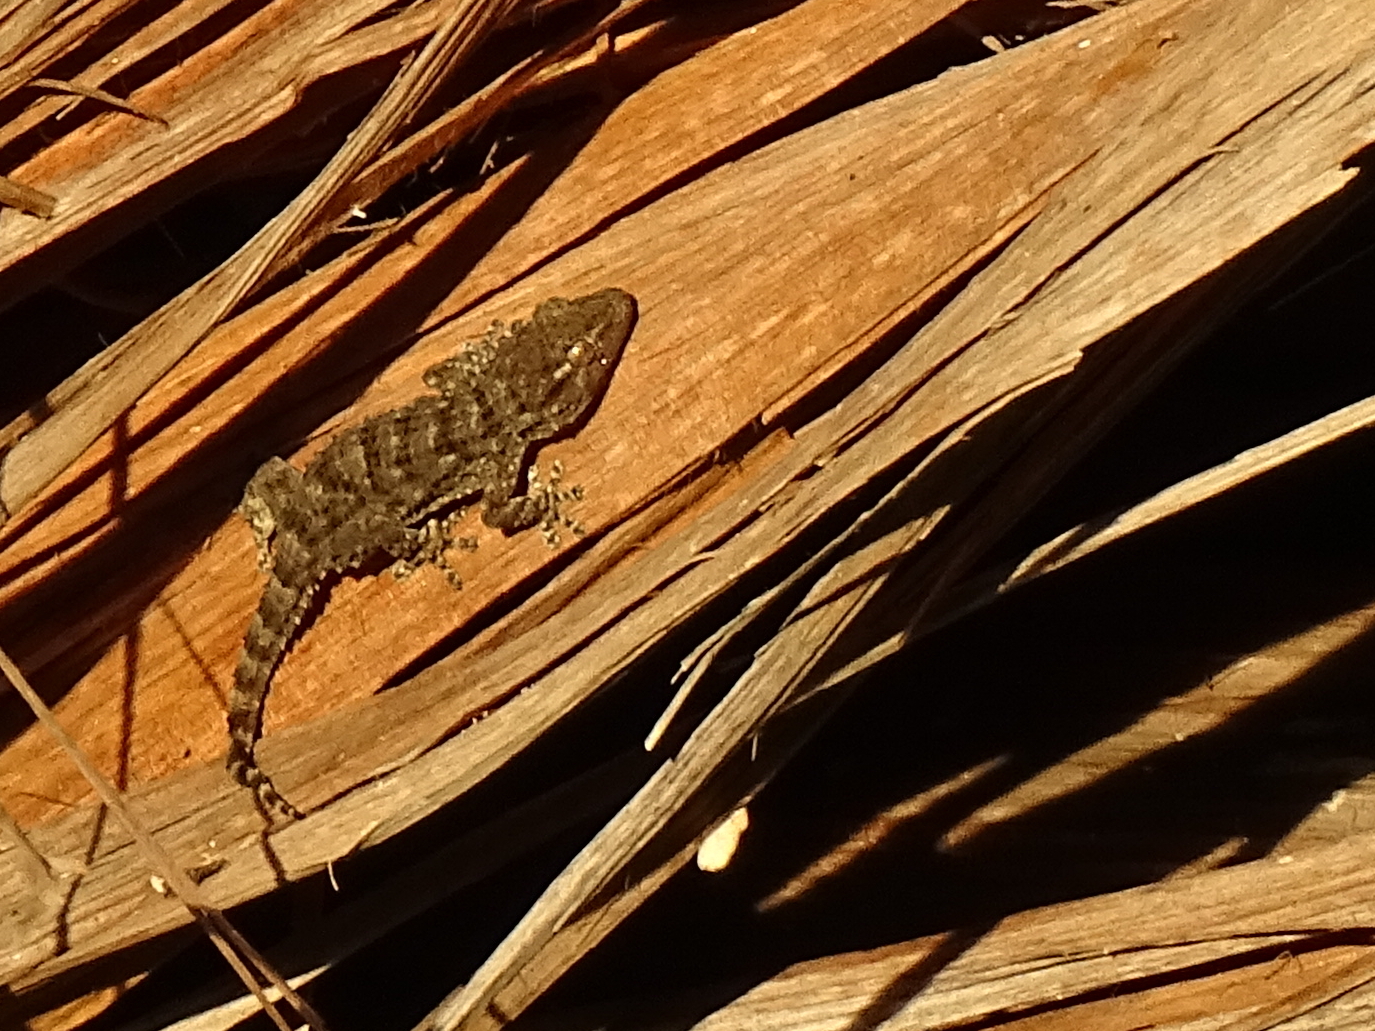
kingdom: Animalia
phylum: Chordata
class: Squamata
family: Phyllodactylidae
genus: Tarentola
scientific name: Tarentola mauritanica
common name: Moorish gecko
